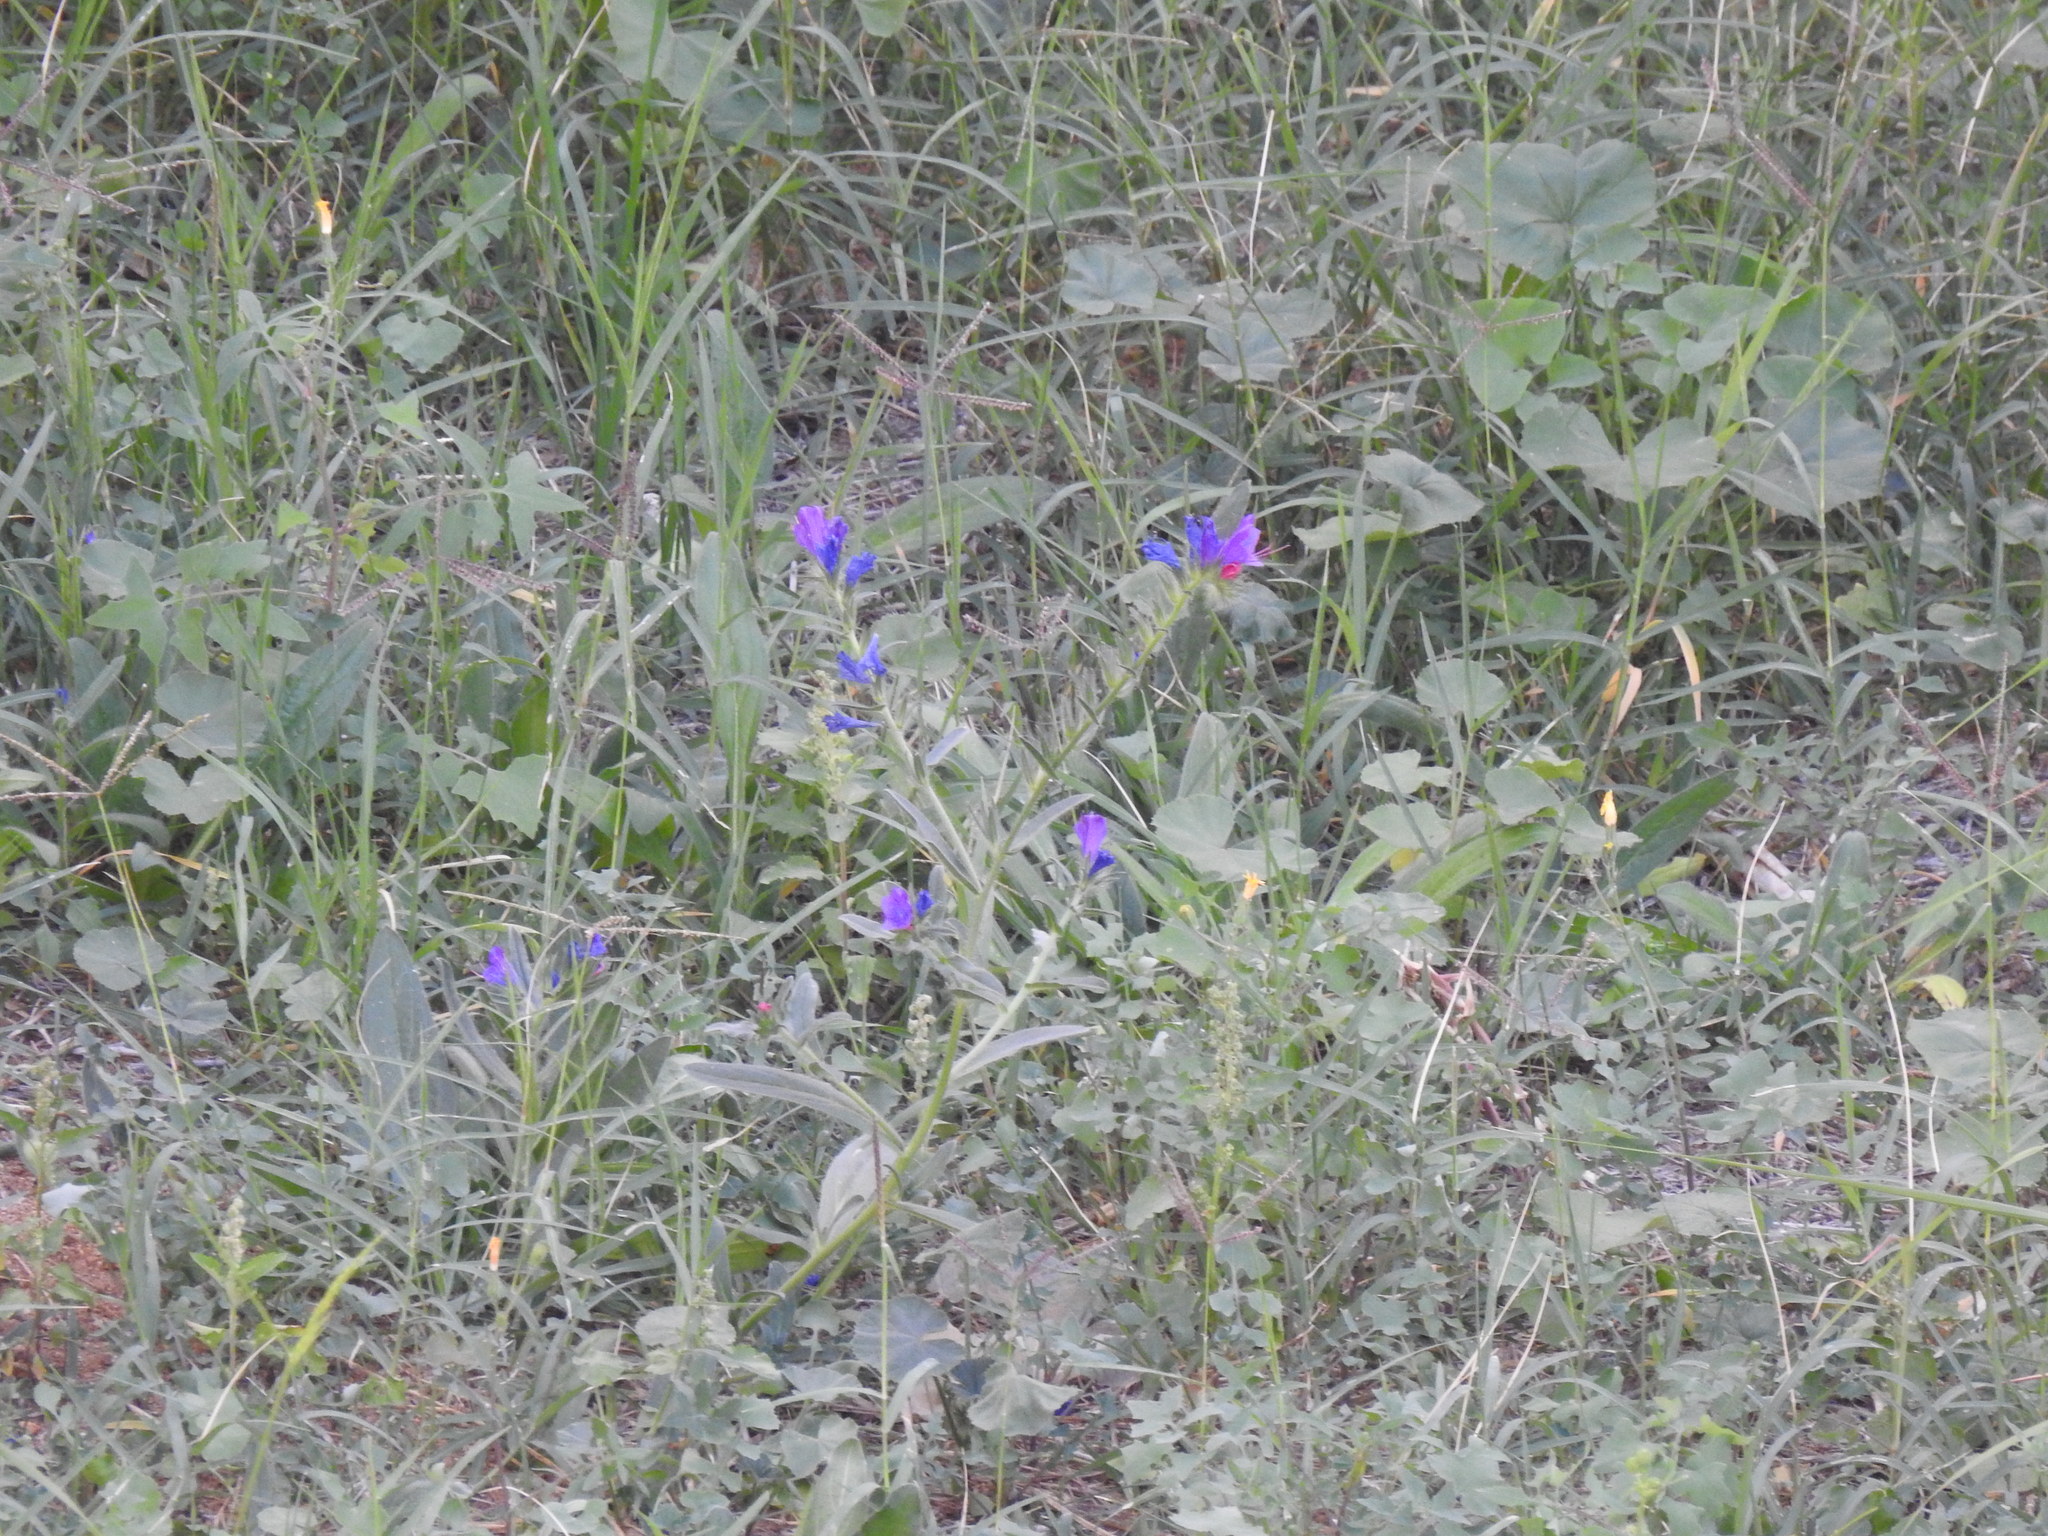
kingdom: Plantae
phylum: Tracheophyta
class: Magnoliopsida
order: Boraginales
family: Boraginaceae
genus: Echium
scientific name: Echium plantagineum
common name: Purple viper's-bugloss
